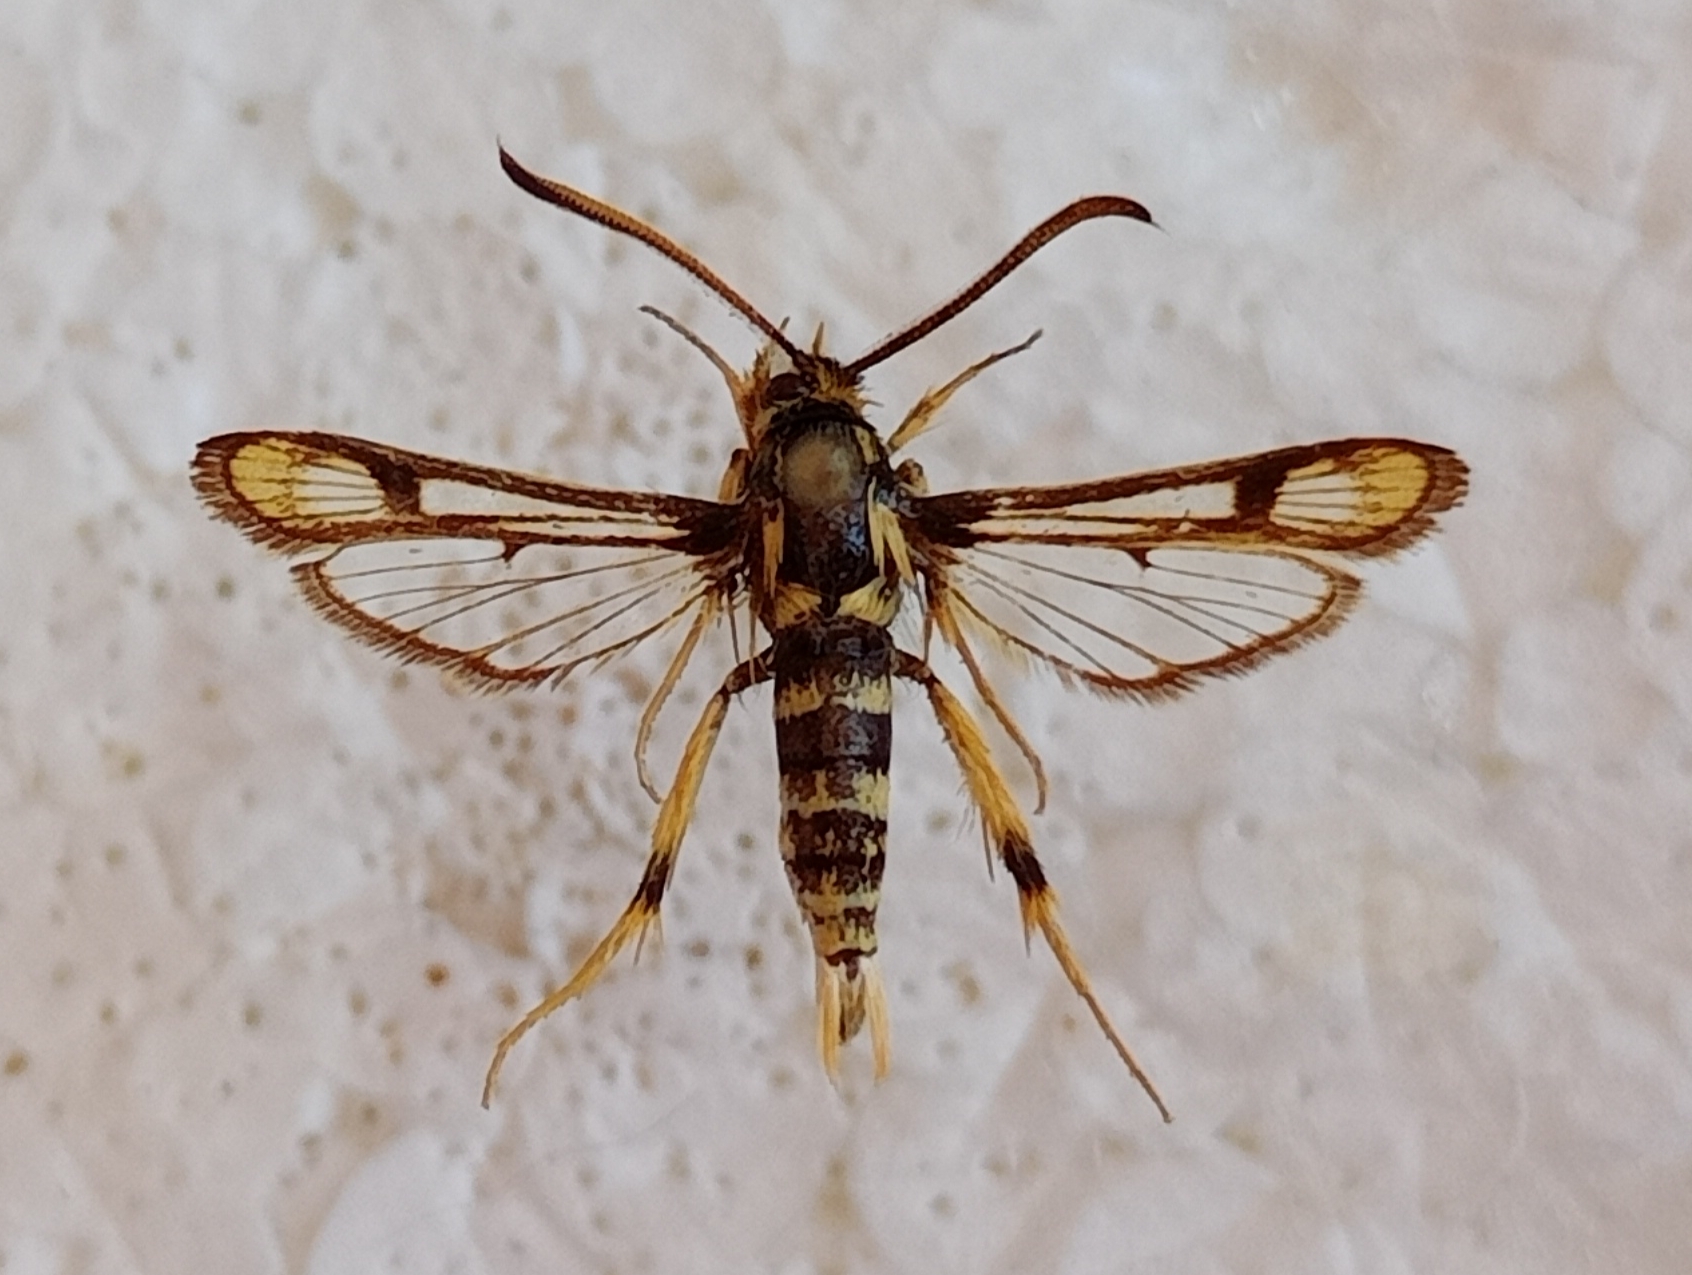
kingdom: Animalia
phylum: Arthropoda
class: Insecta
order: Lepidoptera
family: Sesiidae
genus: Chamaesphecia
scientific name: Chamaesphecia masariformis
